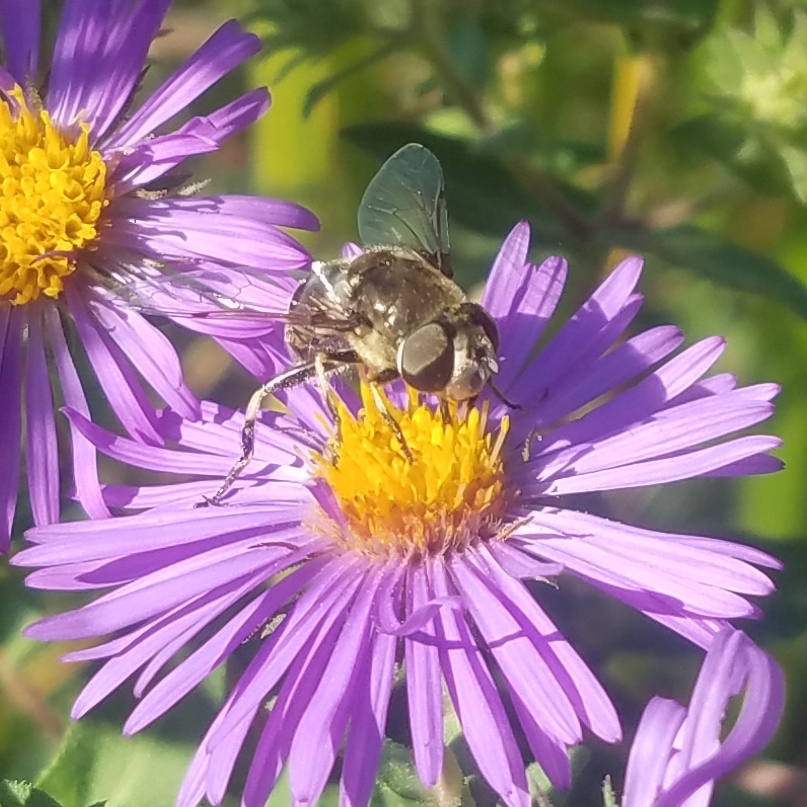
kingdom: Animalia
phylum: Arthropoda
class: Insecta
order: Diptera
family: Syrphidae
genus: Eristalis
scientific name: Eristalis dimidiata
